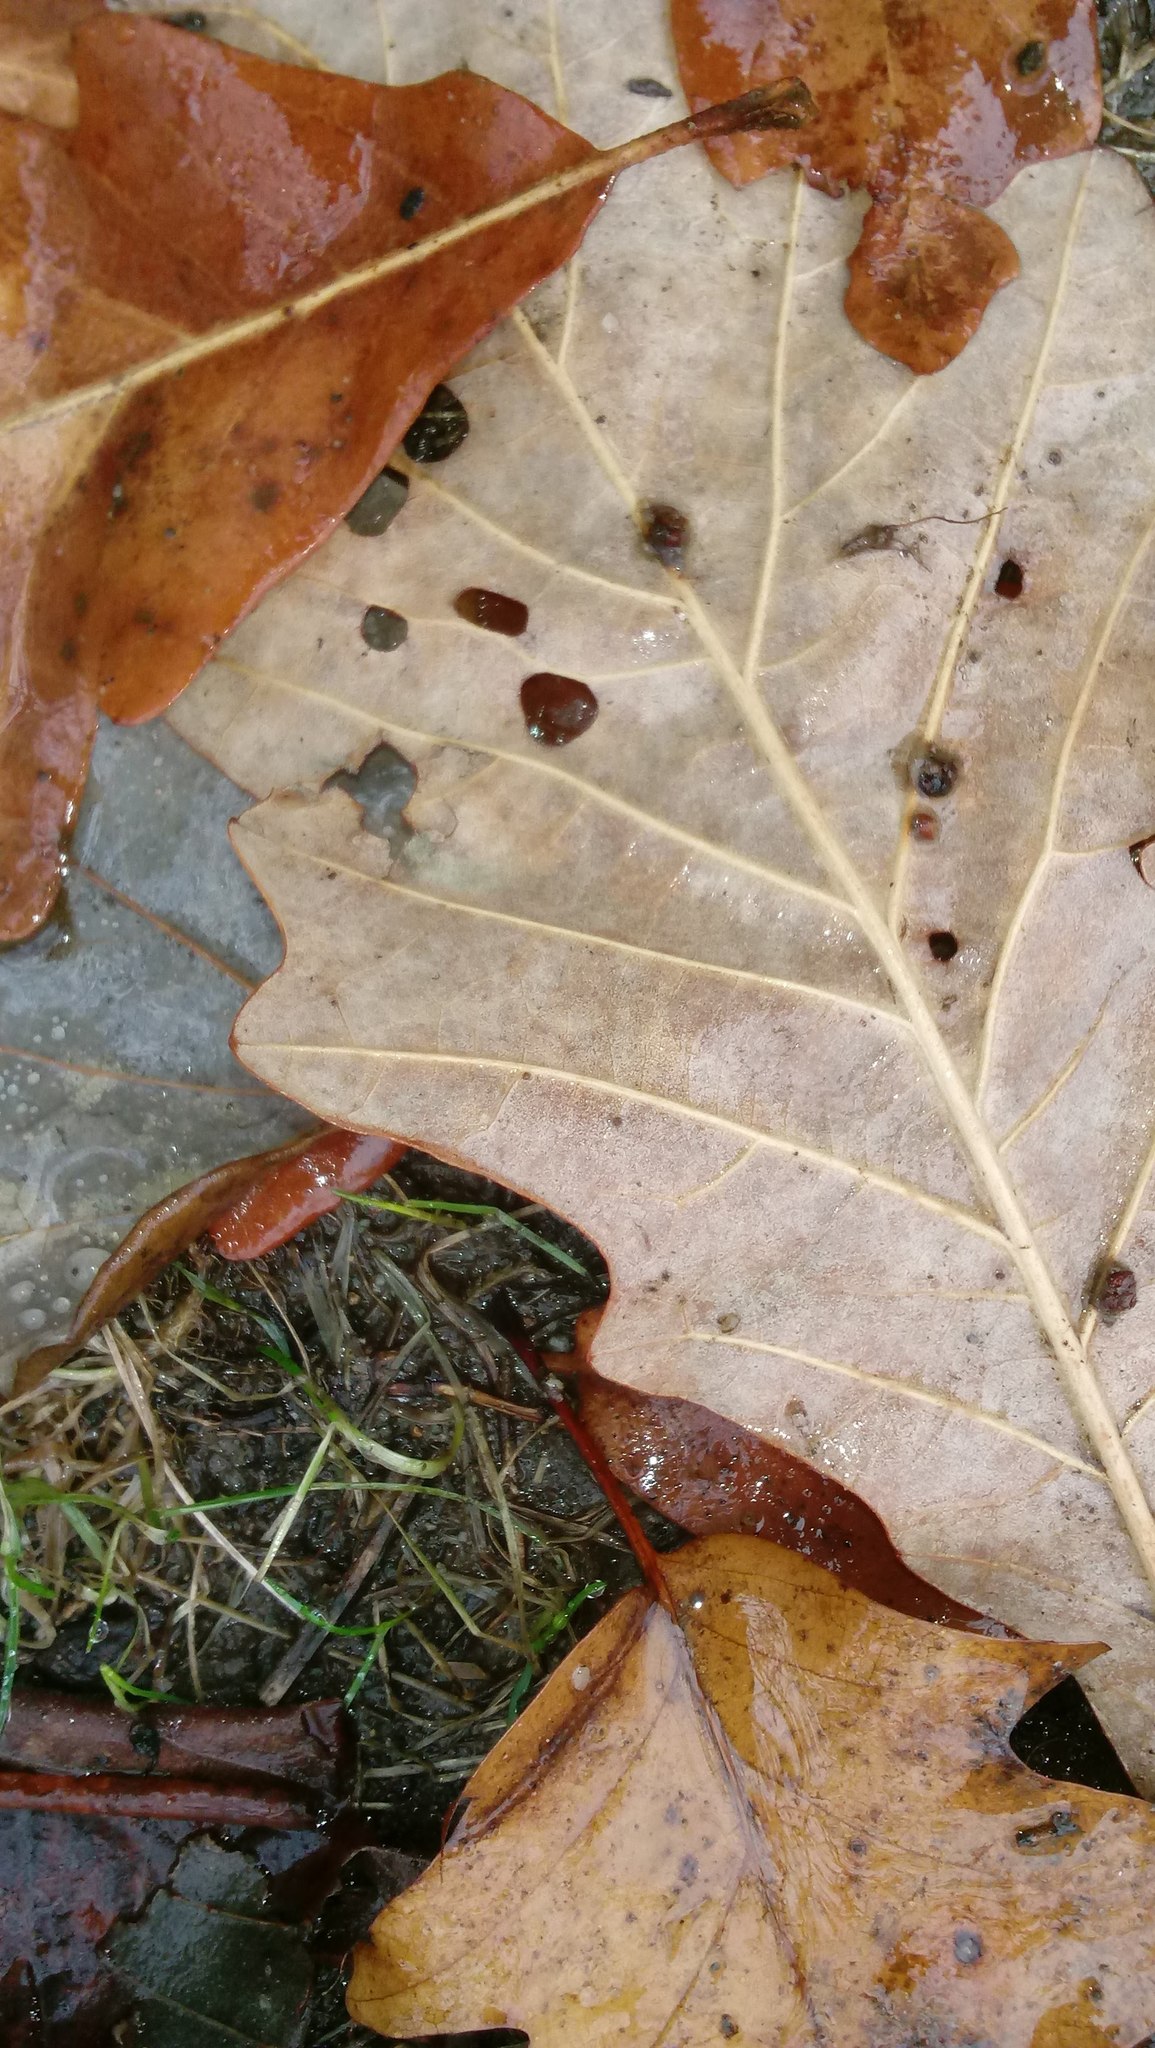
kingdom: Animalia
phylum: Arthropoda
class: Insecta
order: Hymenoptera
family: Cynipidae
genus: Andricus
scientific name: Andricus Druon ignotum
